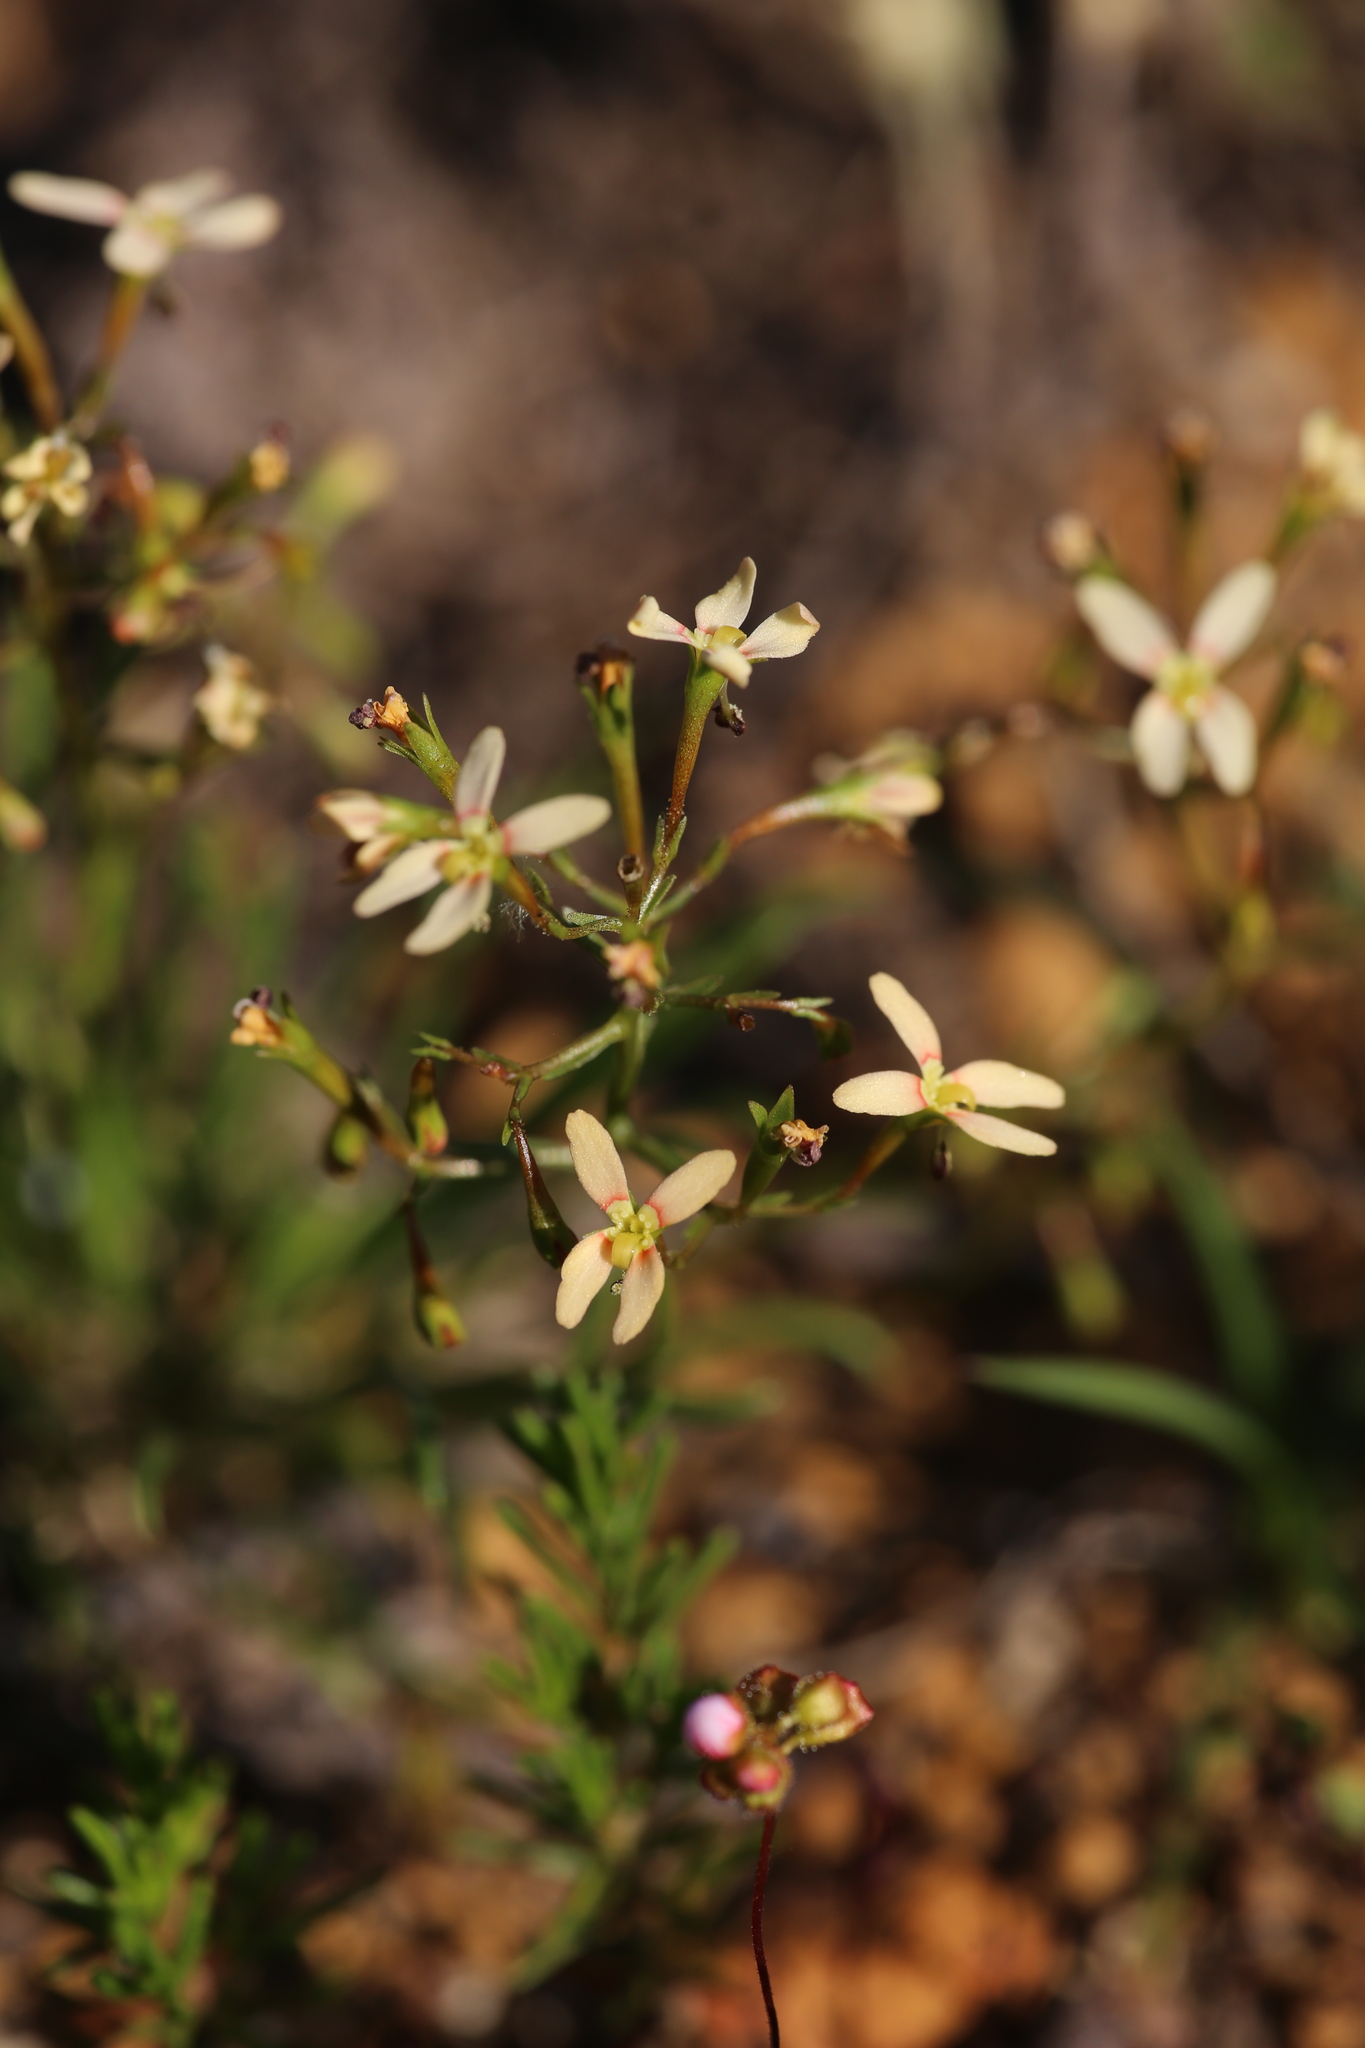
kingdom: Plantae
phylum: Tracheophyta
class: Magnoliopsida
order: Asterales
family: Stylidiaceae
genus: Stylidium
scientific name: Stylidium thesioides
